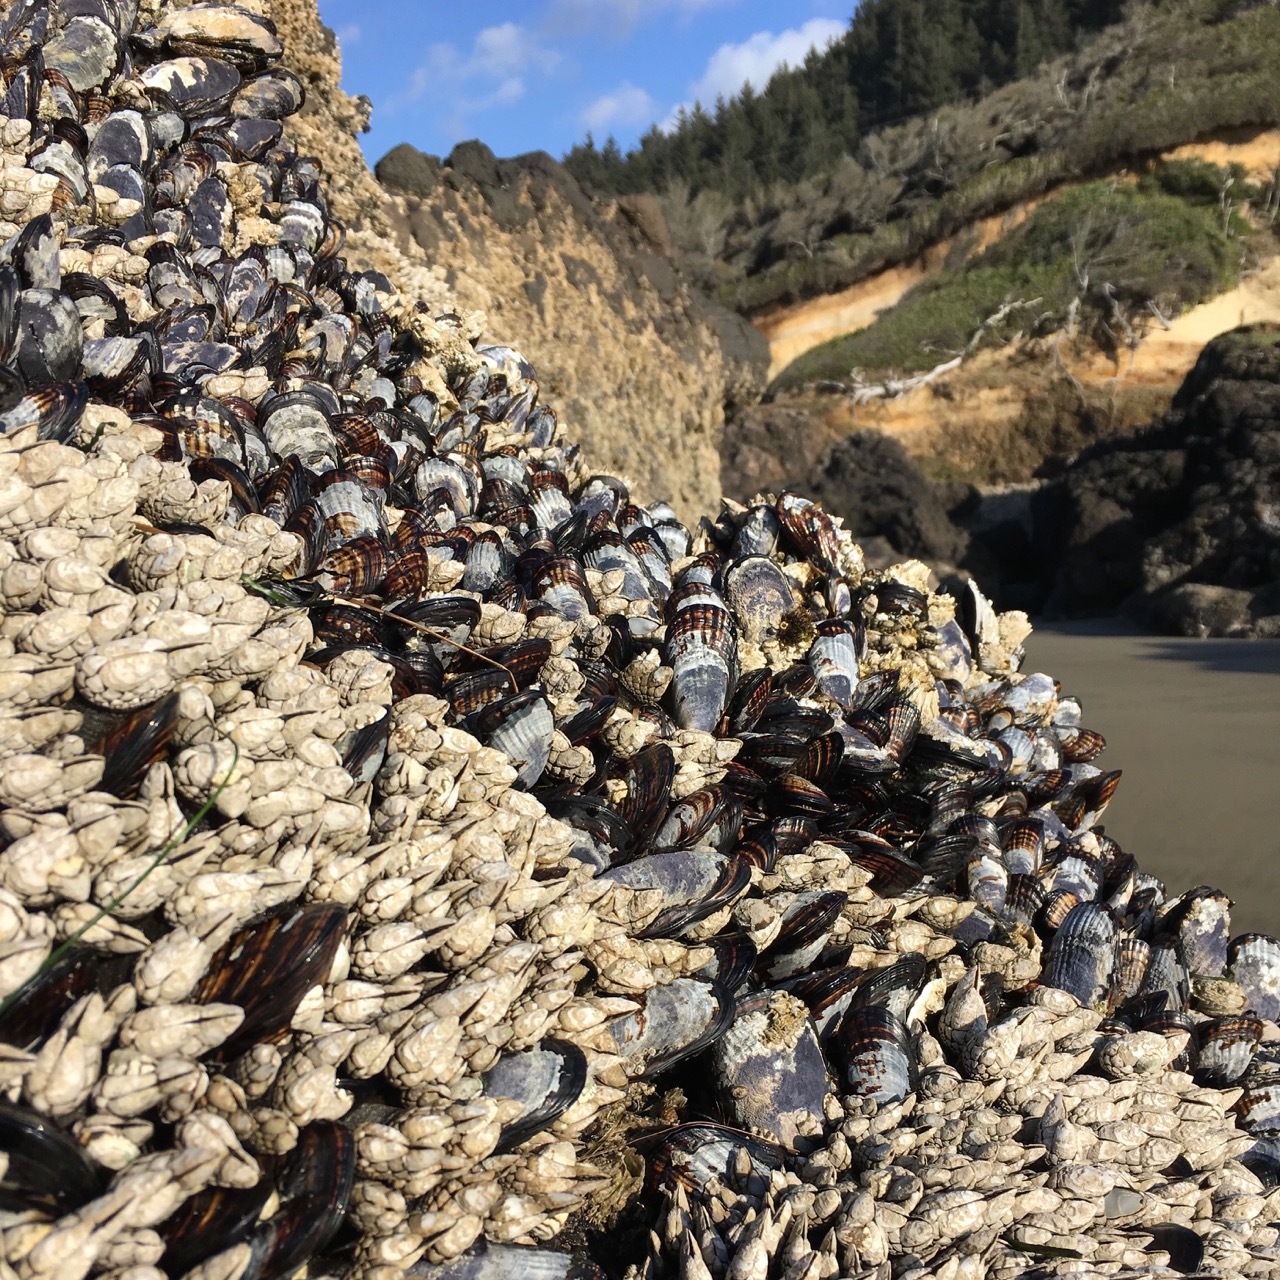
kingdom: Animalia
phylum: Mollusca
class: Bivalvia
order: Mytilida
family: Mytilidae
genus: Mytilus
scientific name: Mytilus californianus
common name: California mussel
